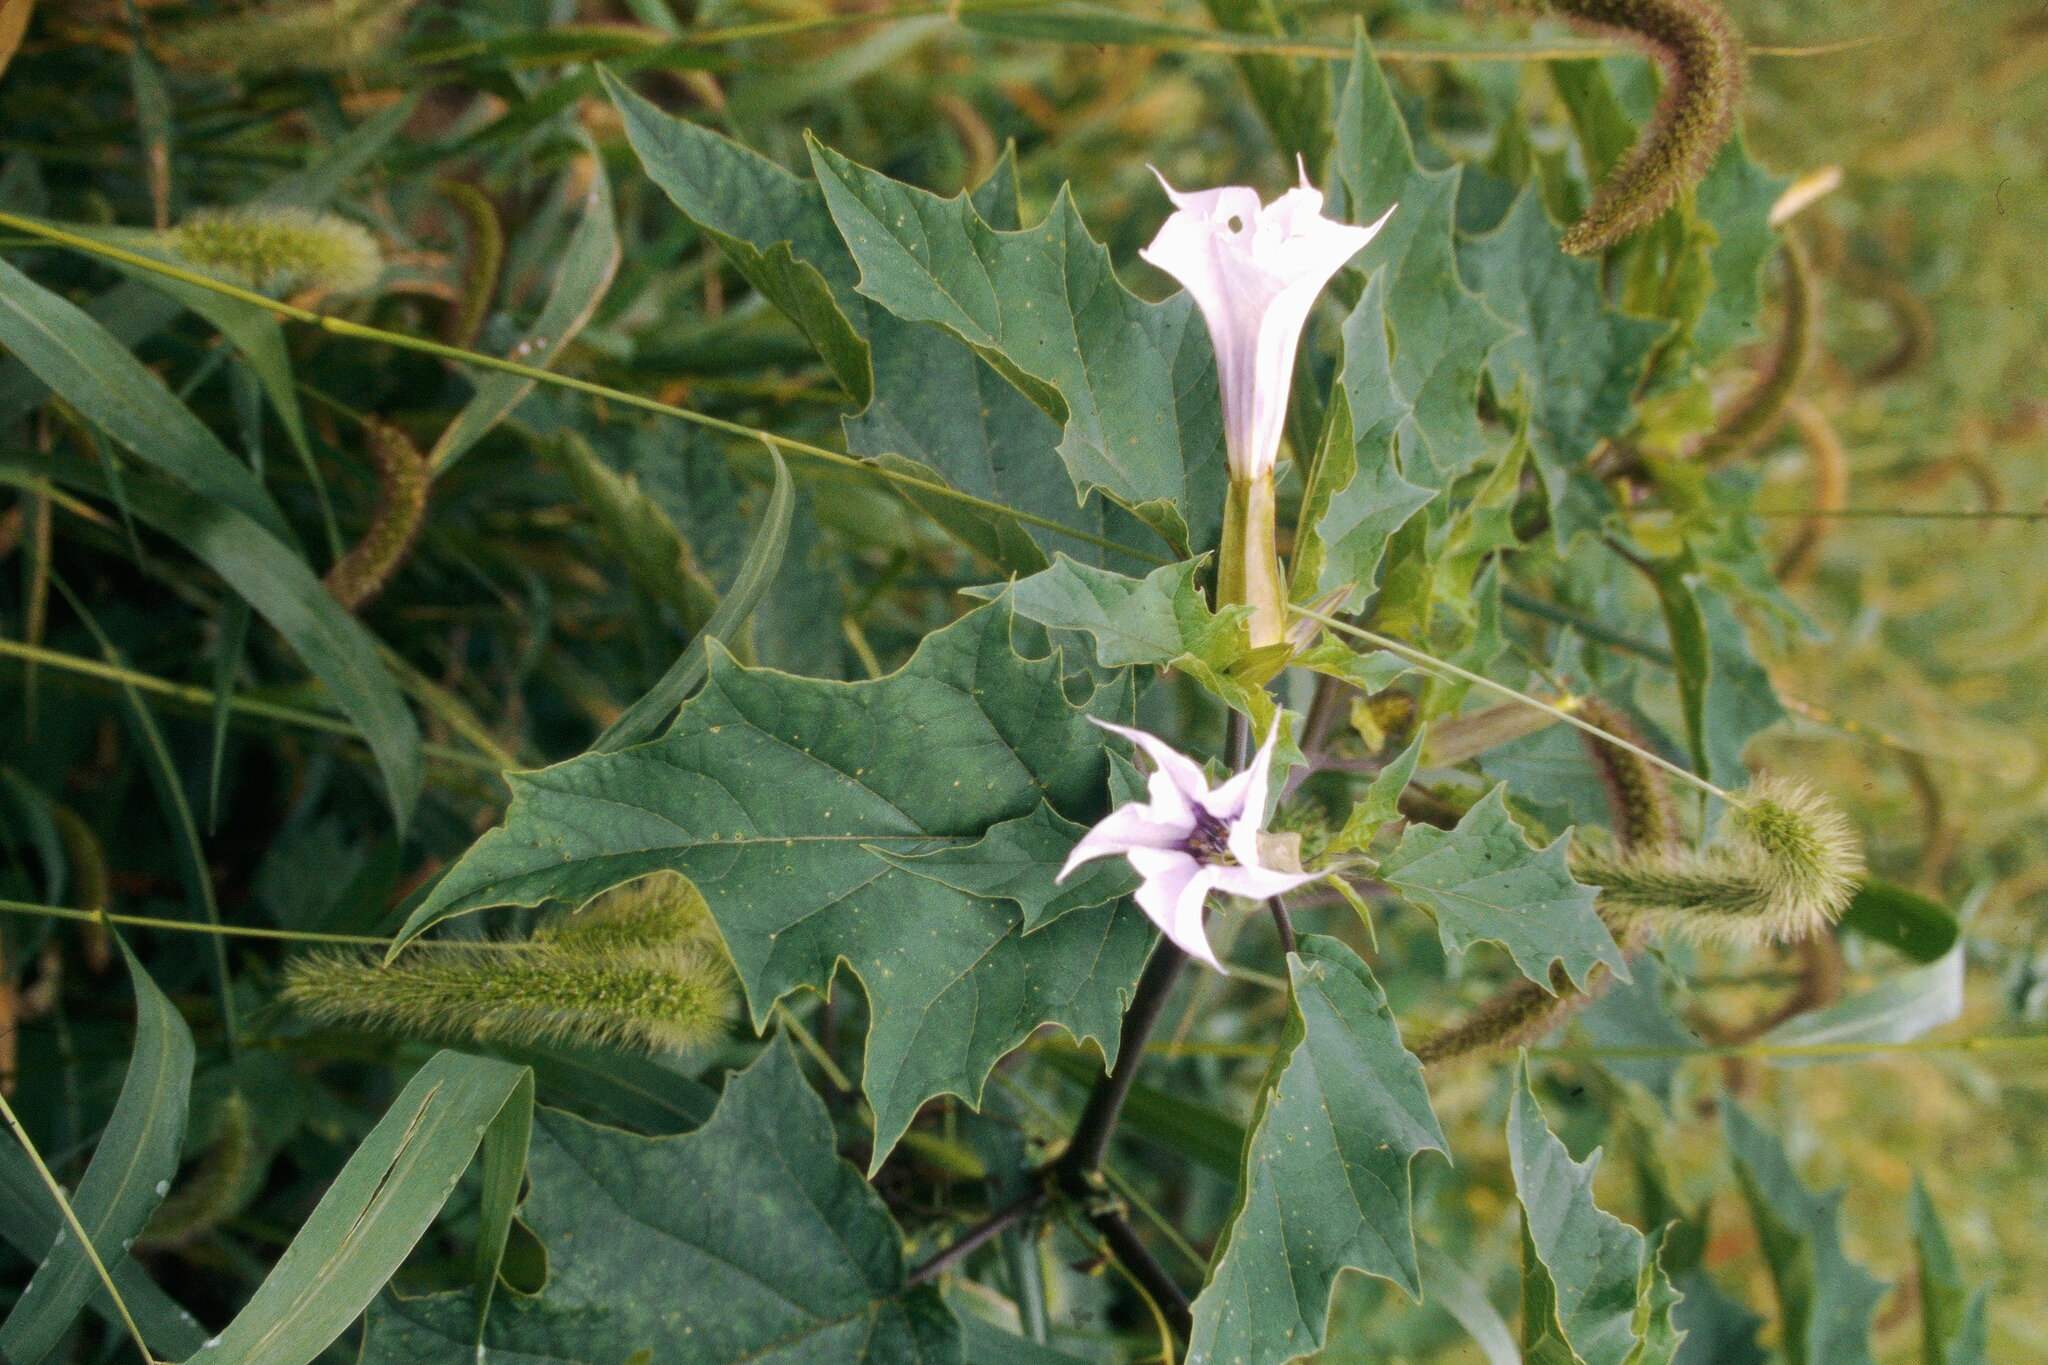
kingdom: Plantae
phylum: Tracheophyta
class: Magnoliopsida
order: Solanales
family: Solanaceae
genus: Datura
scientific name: Datura stramonium
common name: Thorn-apple
